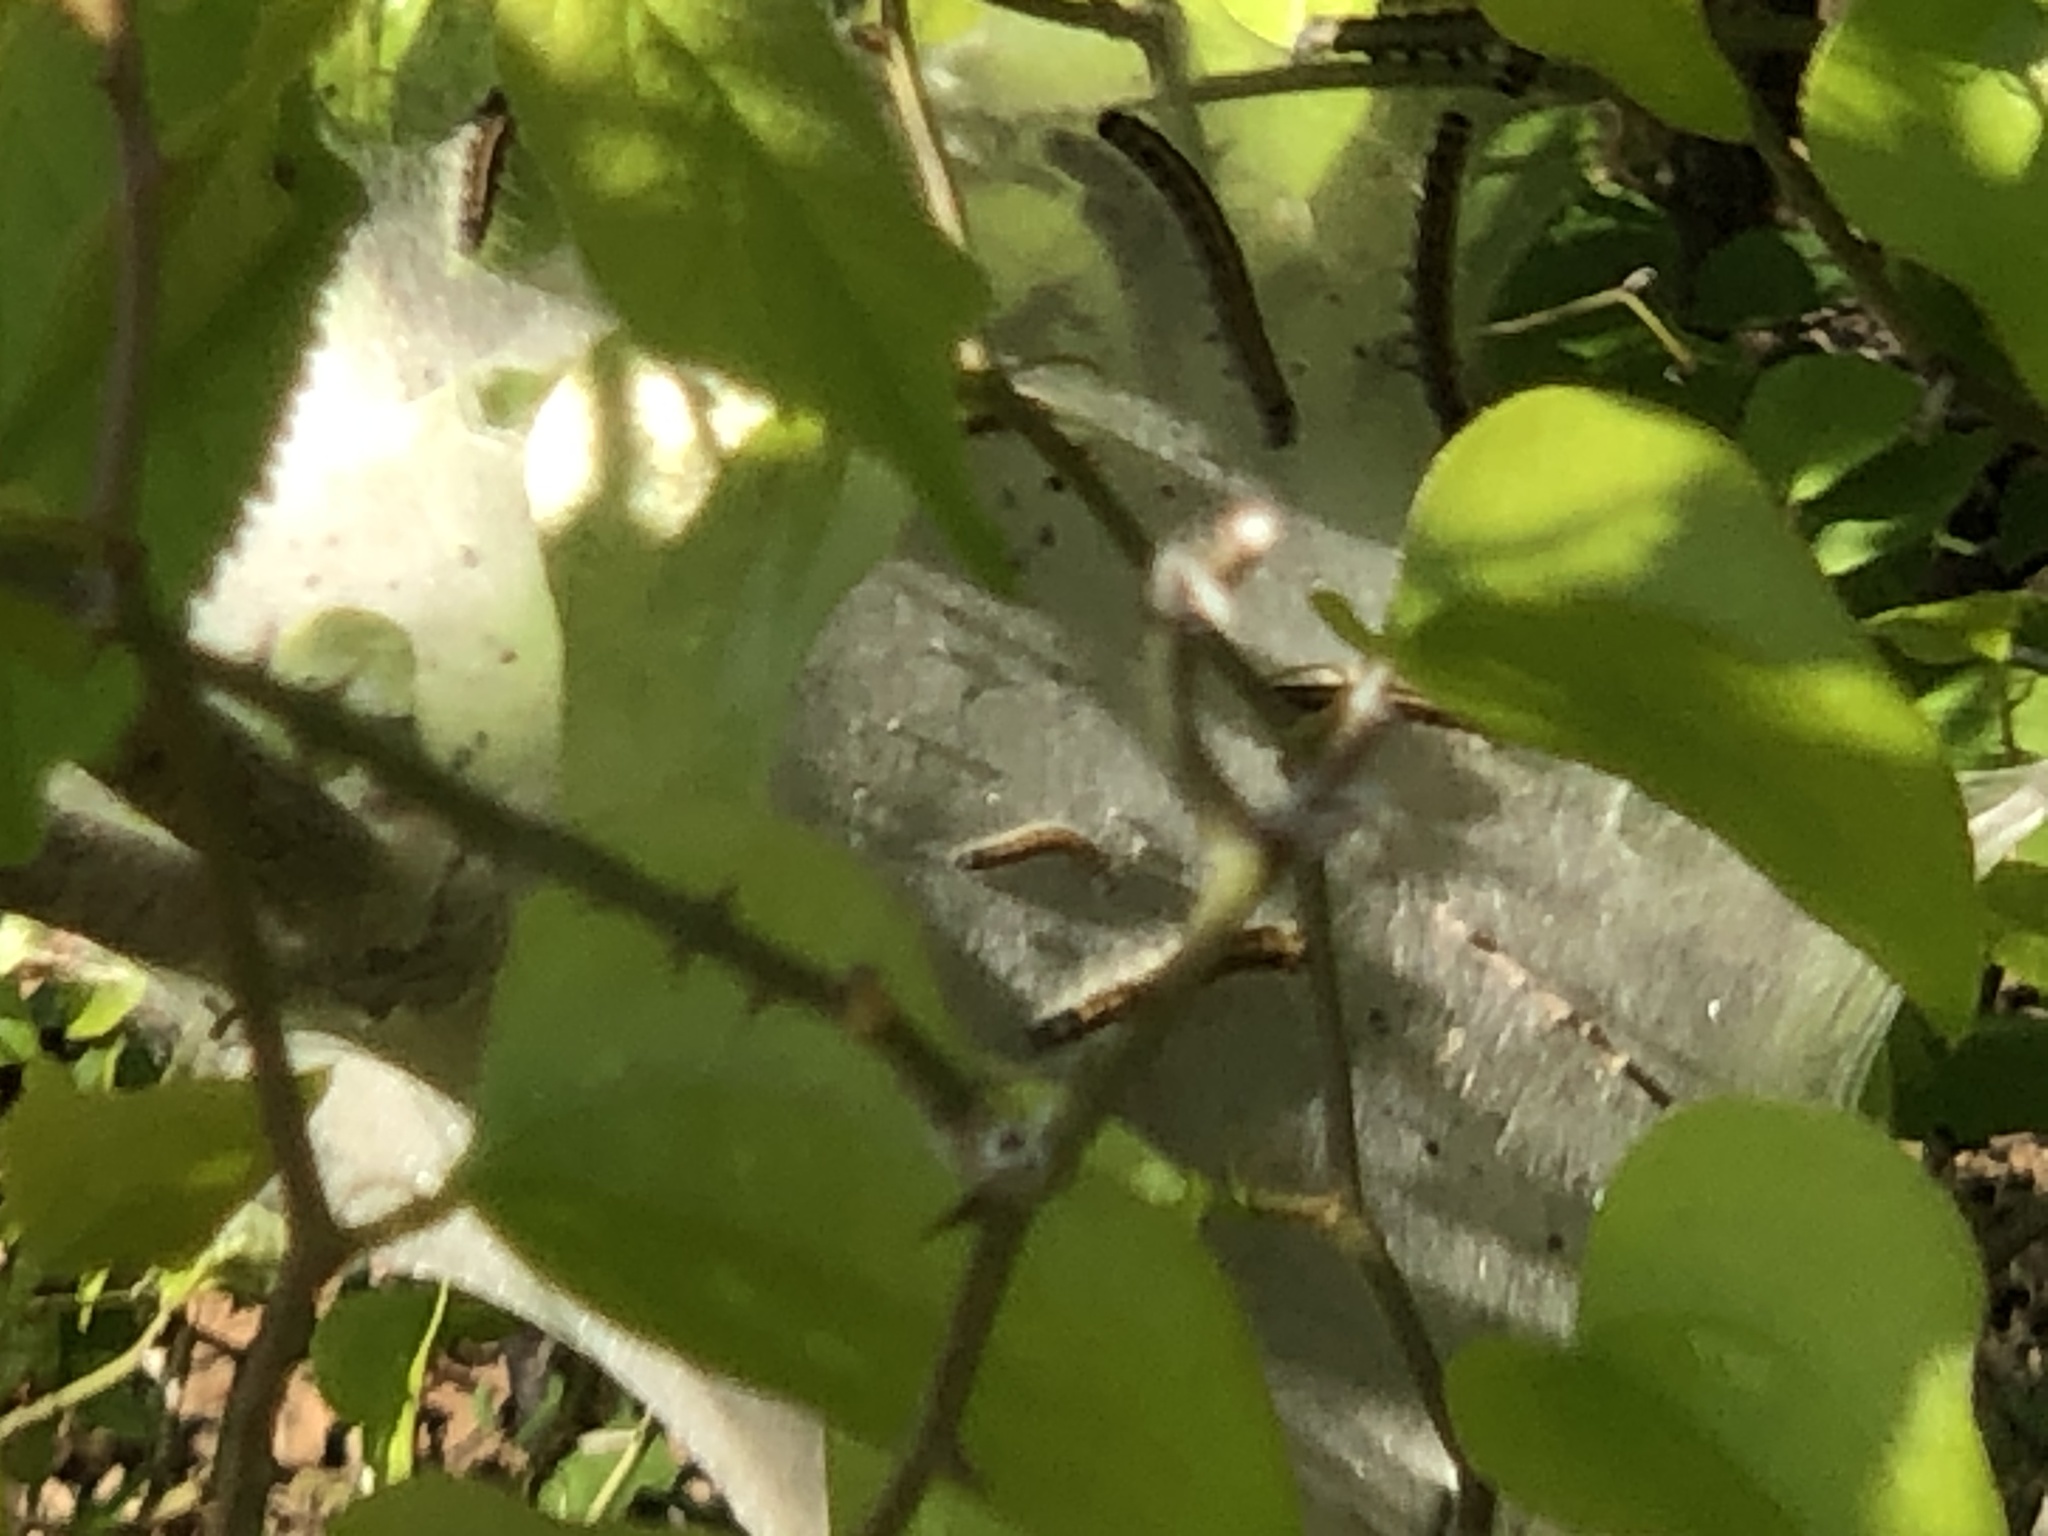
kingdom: Animalia
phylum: Arthropoda
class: Insecta
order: Lepidoptera
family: Lasiocampidae
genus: Malacosoma
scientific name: Malacosoma americana
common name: Eastern tent caterpillar moth
